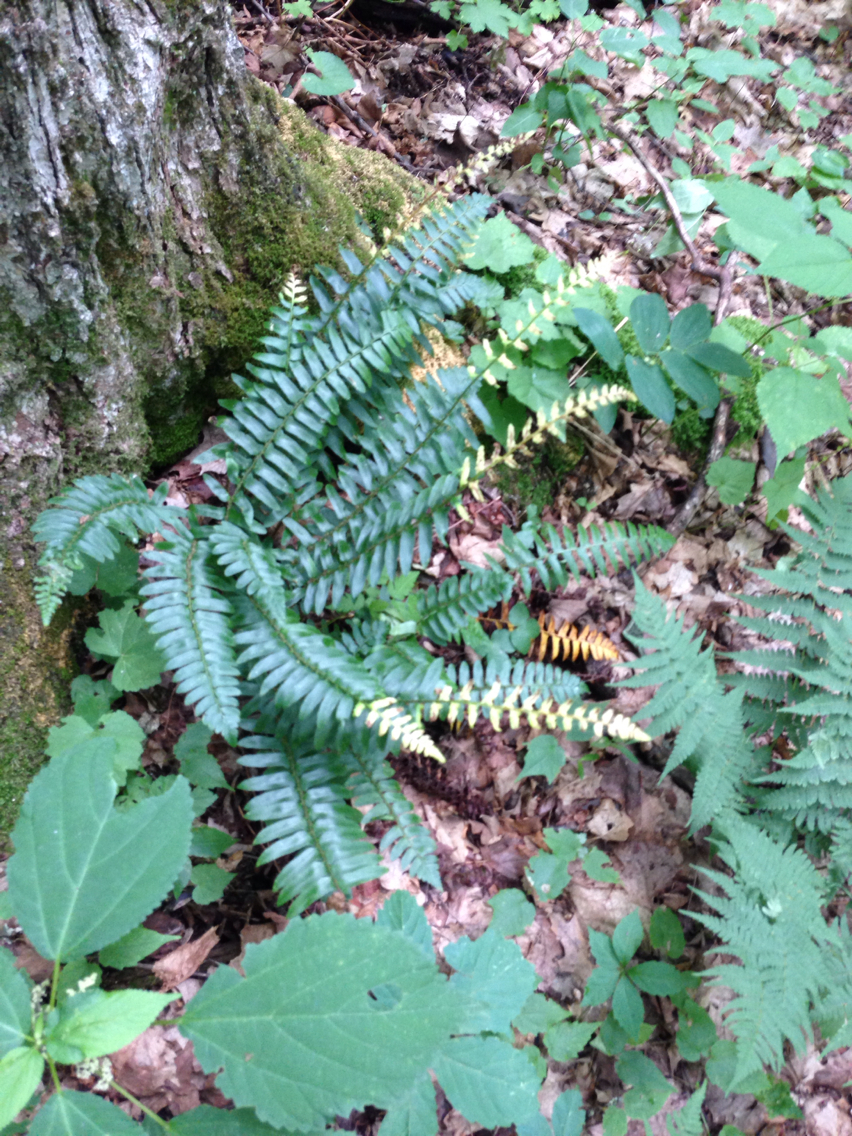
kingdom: Plantae
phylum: Tracheophyta
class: Polypodiopsida
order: Polypodiales
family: Dryopteridaceae
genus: Polystichum
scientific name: Polystichum acrostichoides
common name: Christmas fern
